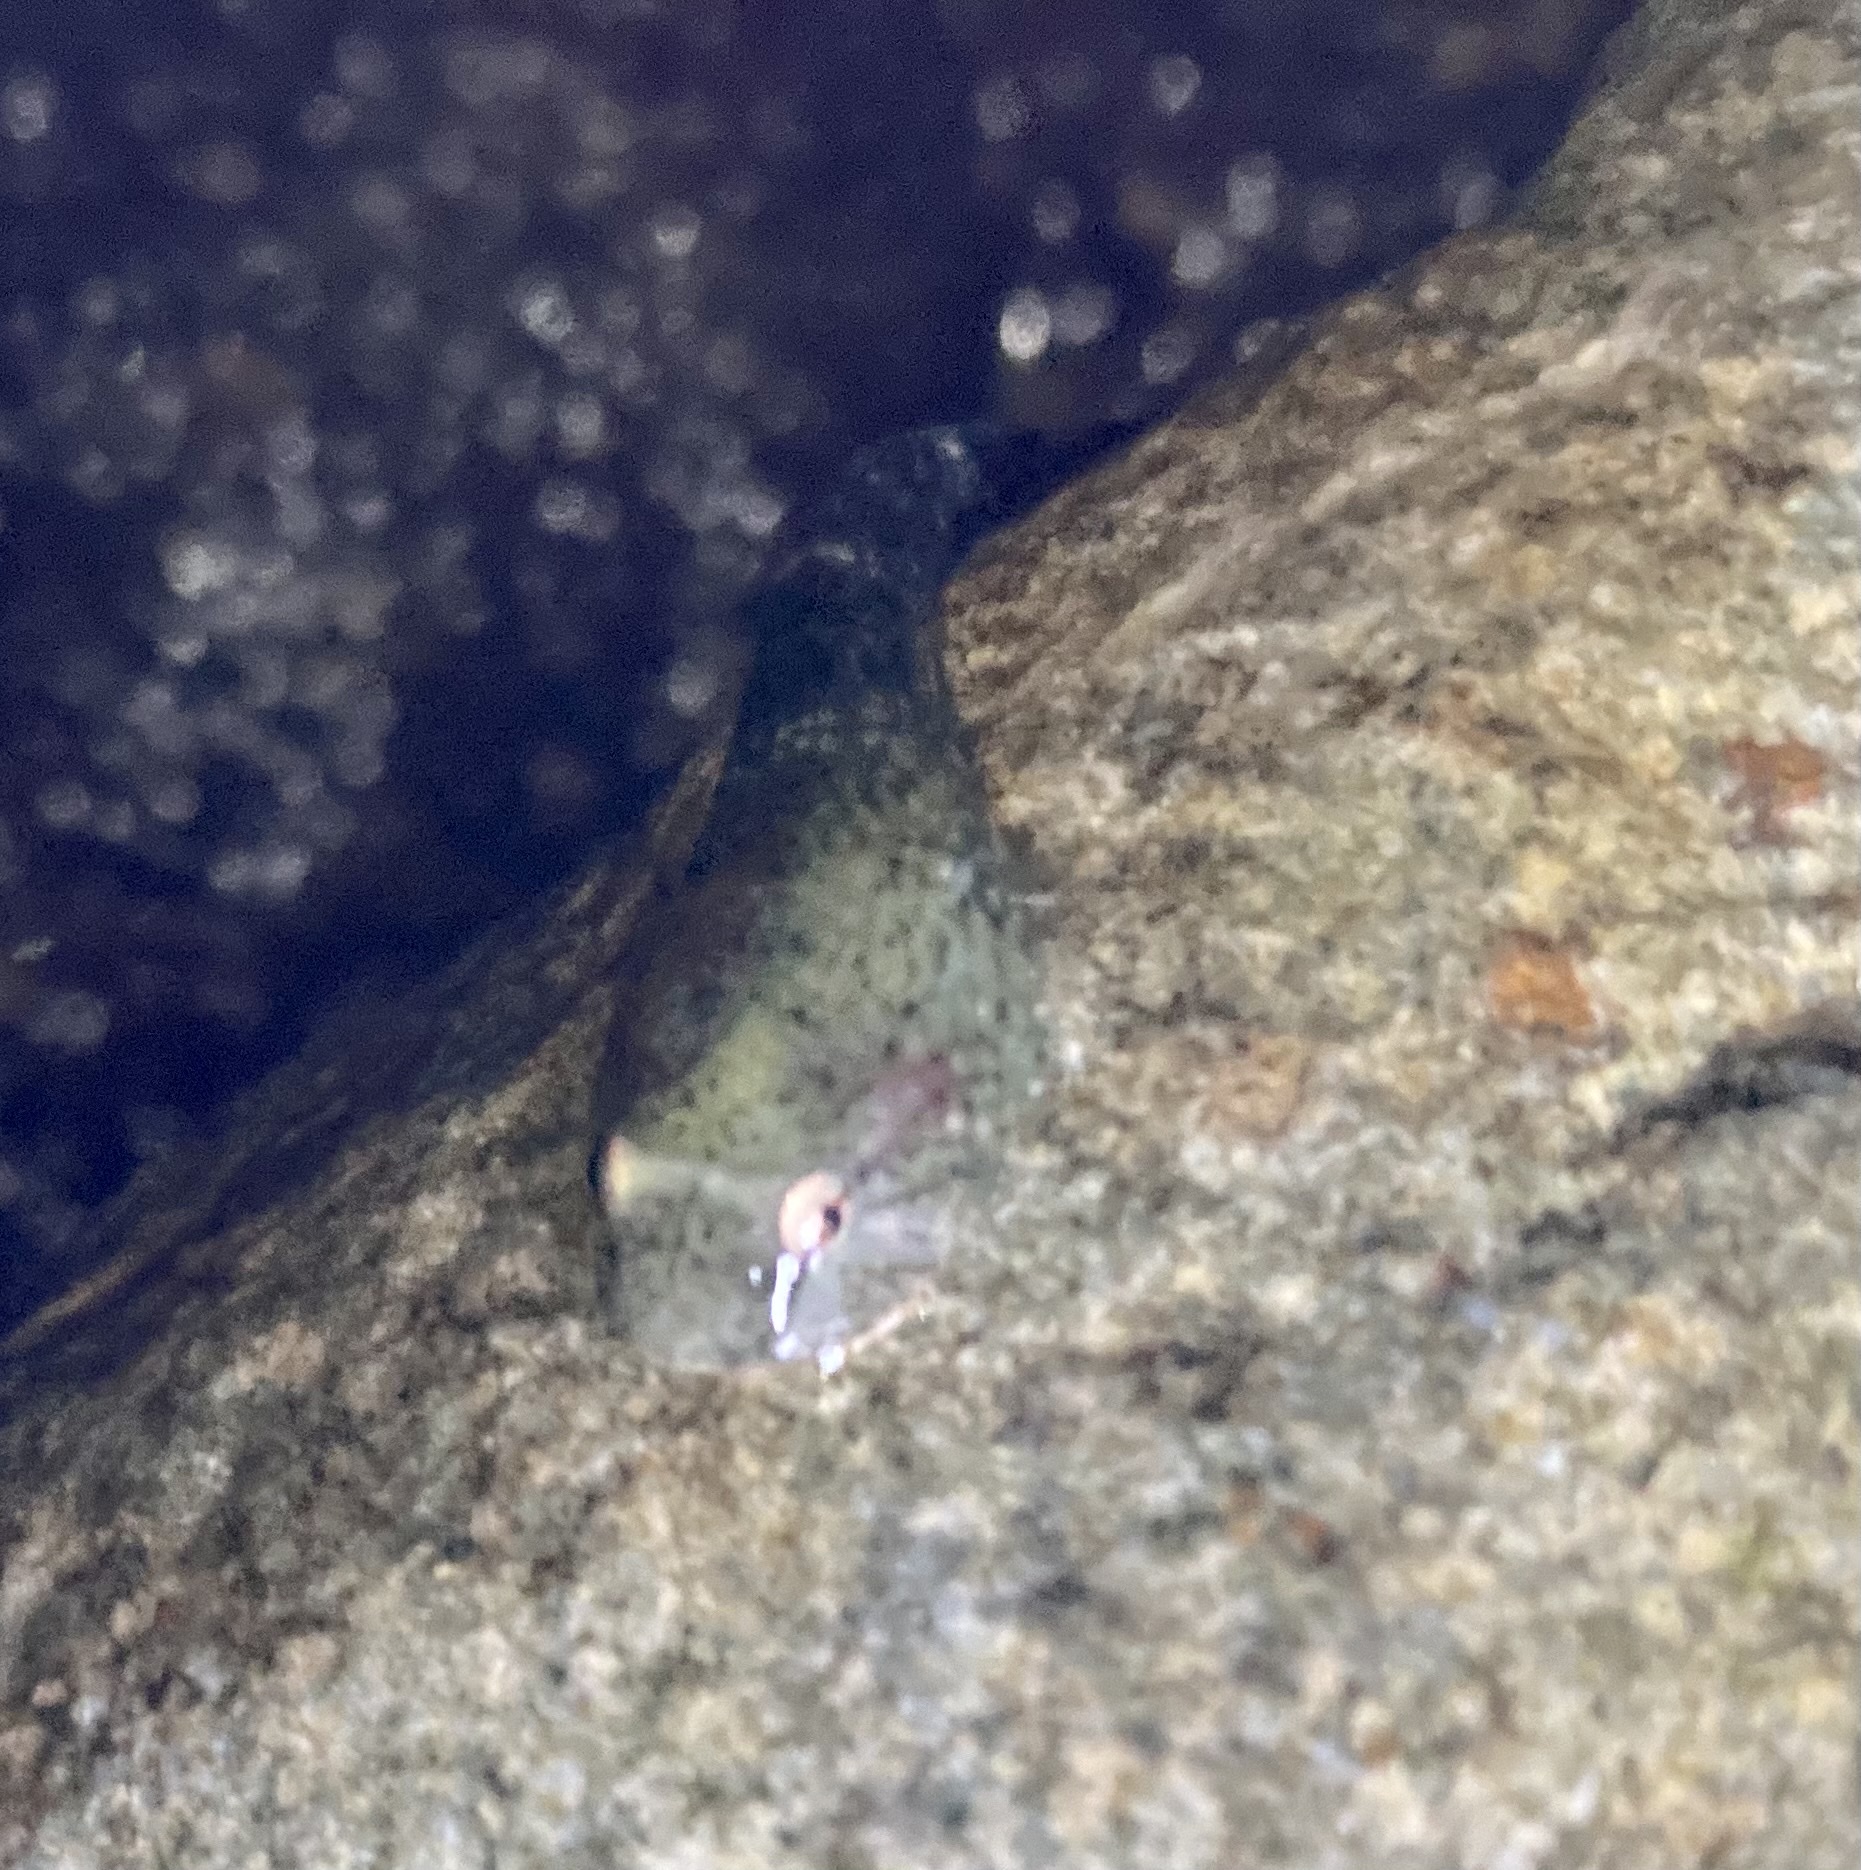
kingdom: Animalia
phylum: Chordata
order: Gobiesociformes
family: Gobiesocidae
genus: Gobiesox
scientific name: Gobiesox maeandricus
